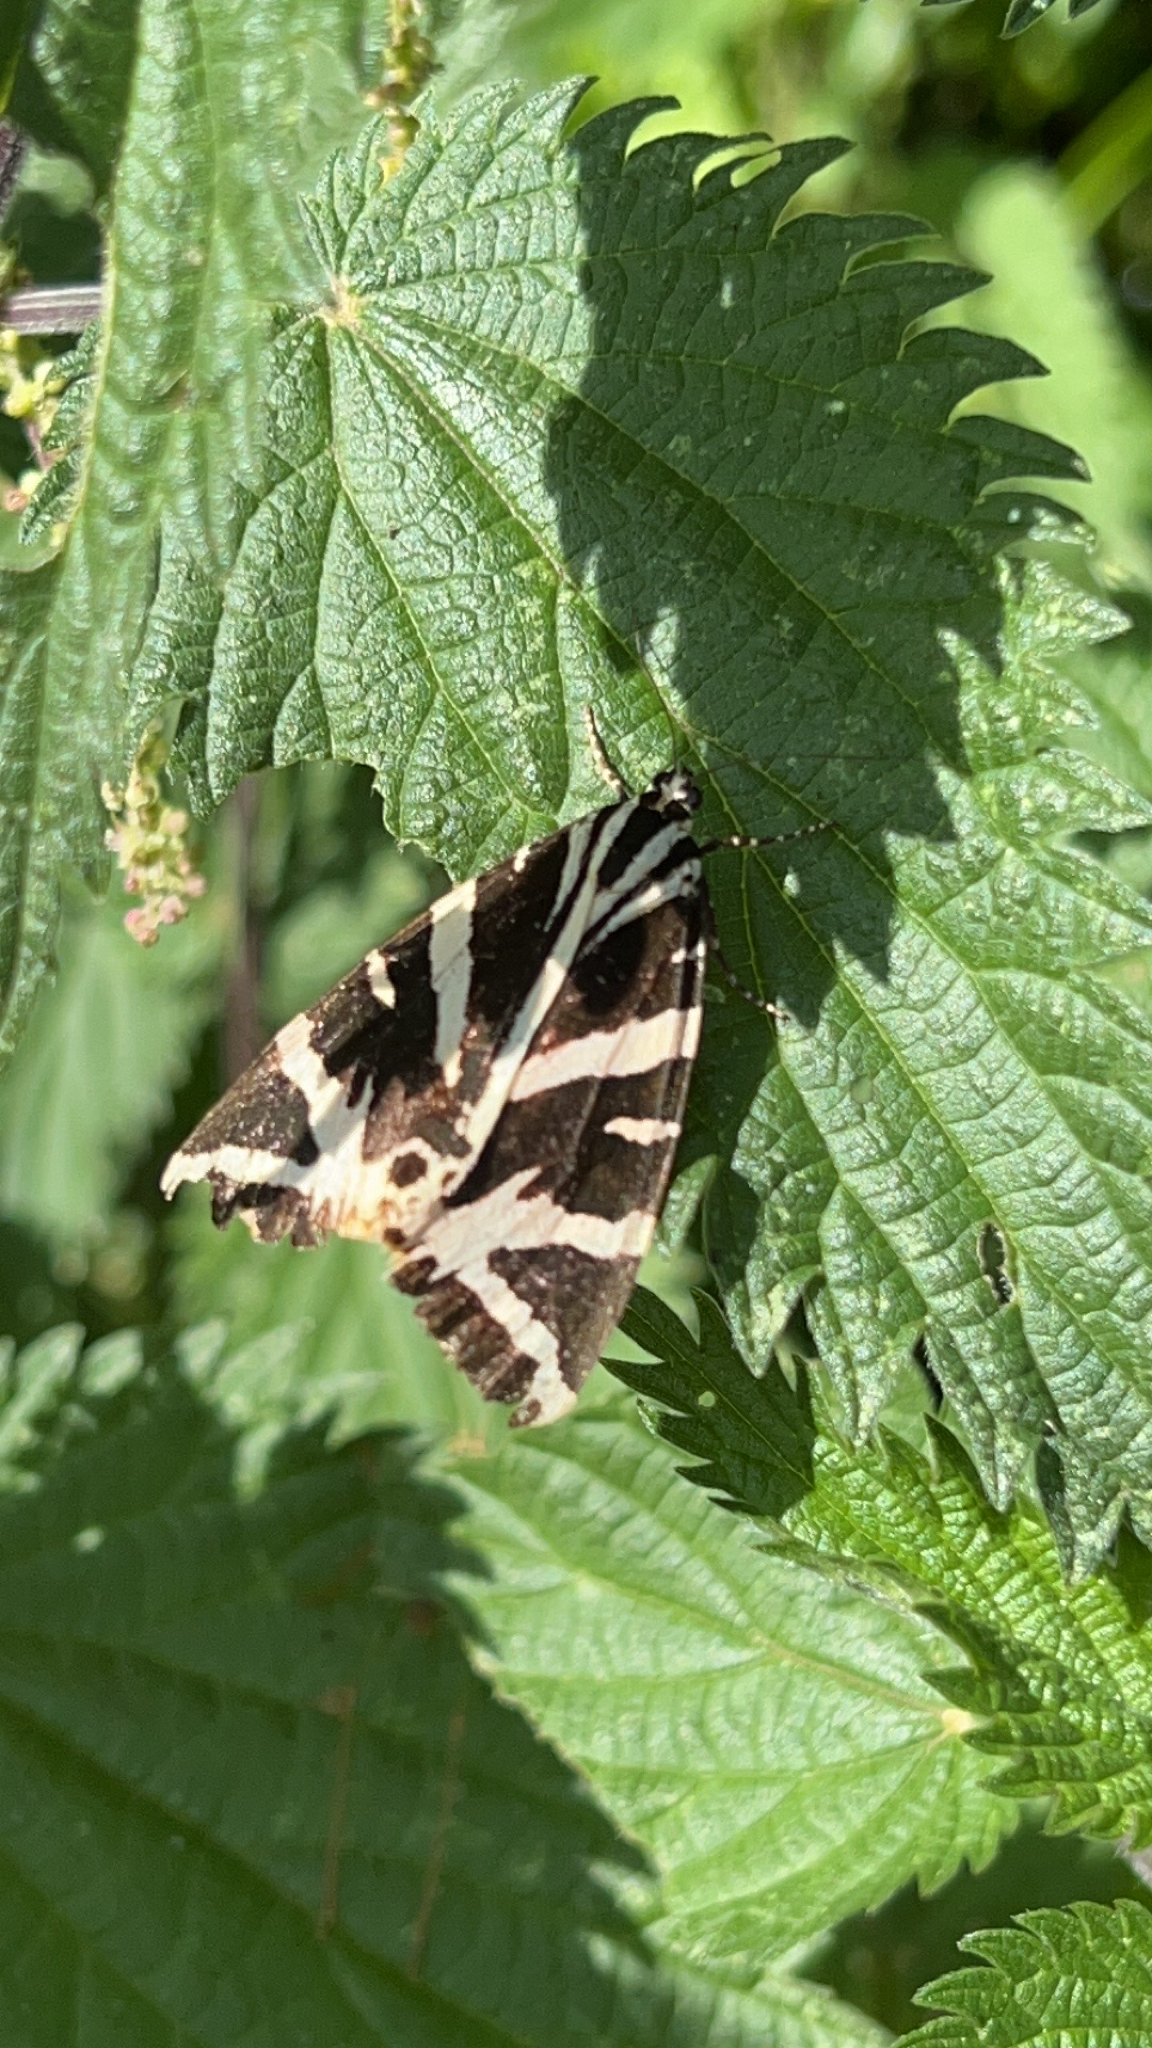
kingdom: Animalia
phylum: Arthropoda
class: Insecta
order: Lepidoptera
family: Erebidae
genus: Euplagia
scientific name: Euplagia quadripunctaria
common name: Jersey tiger
